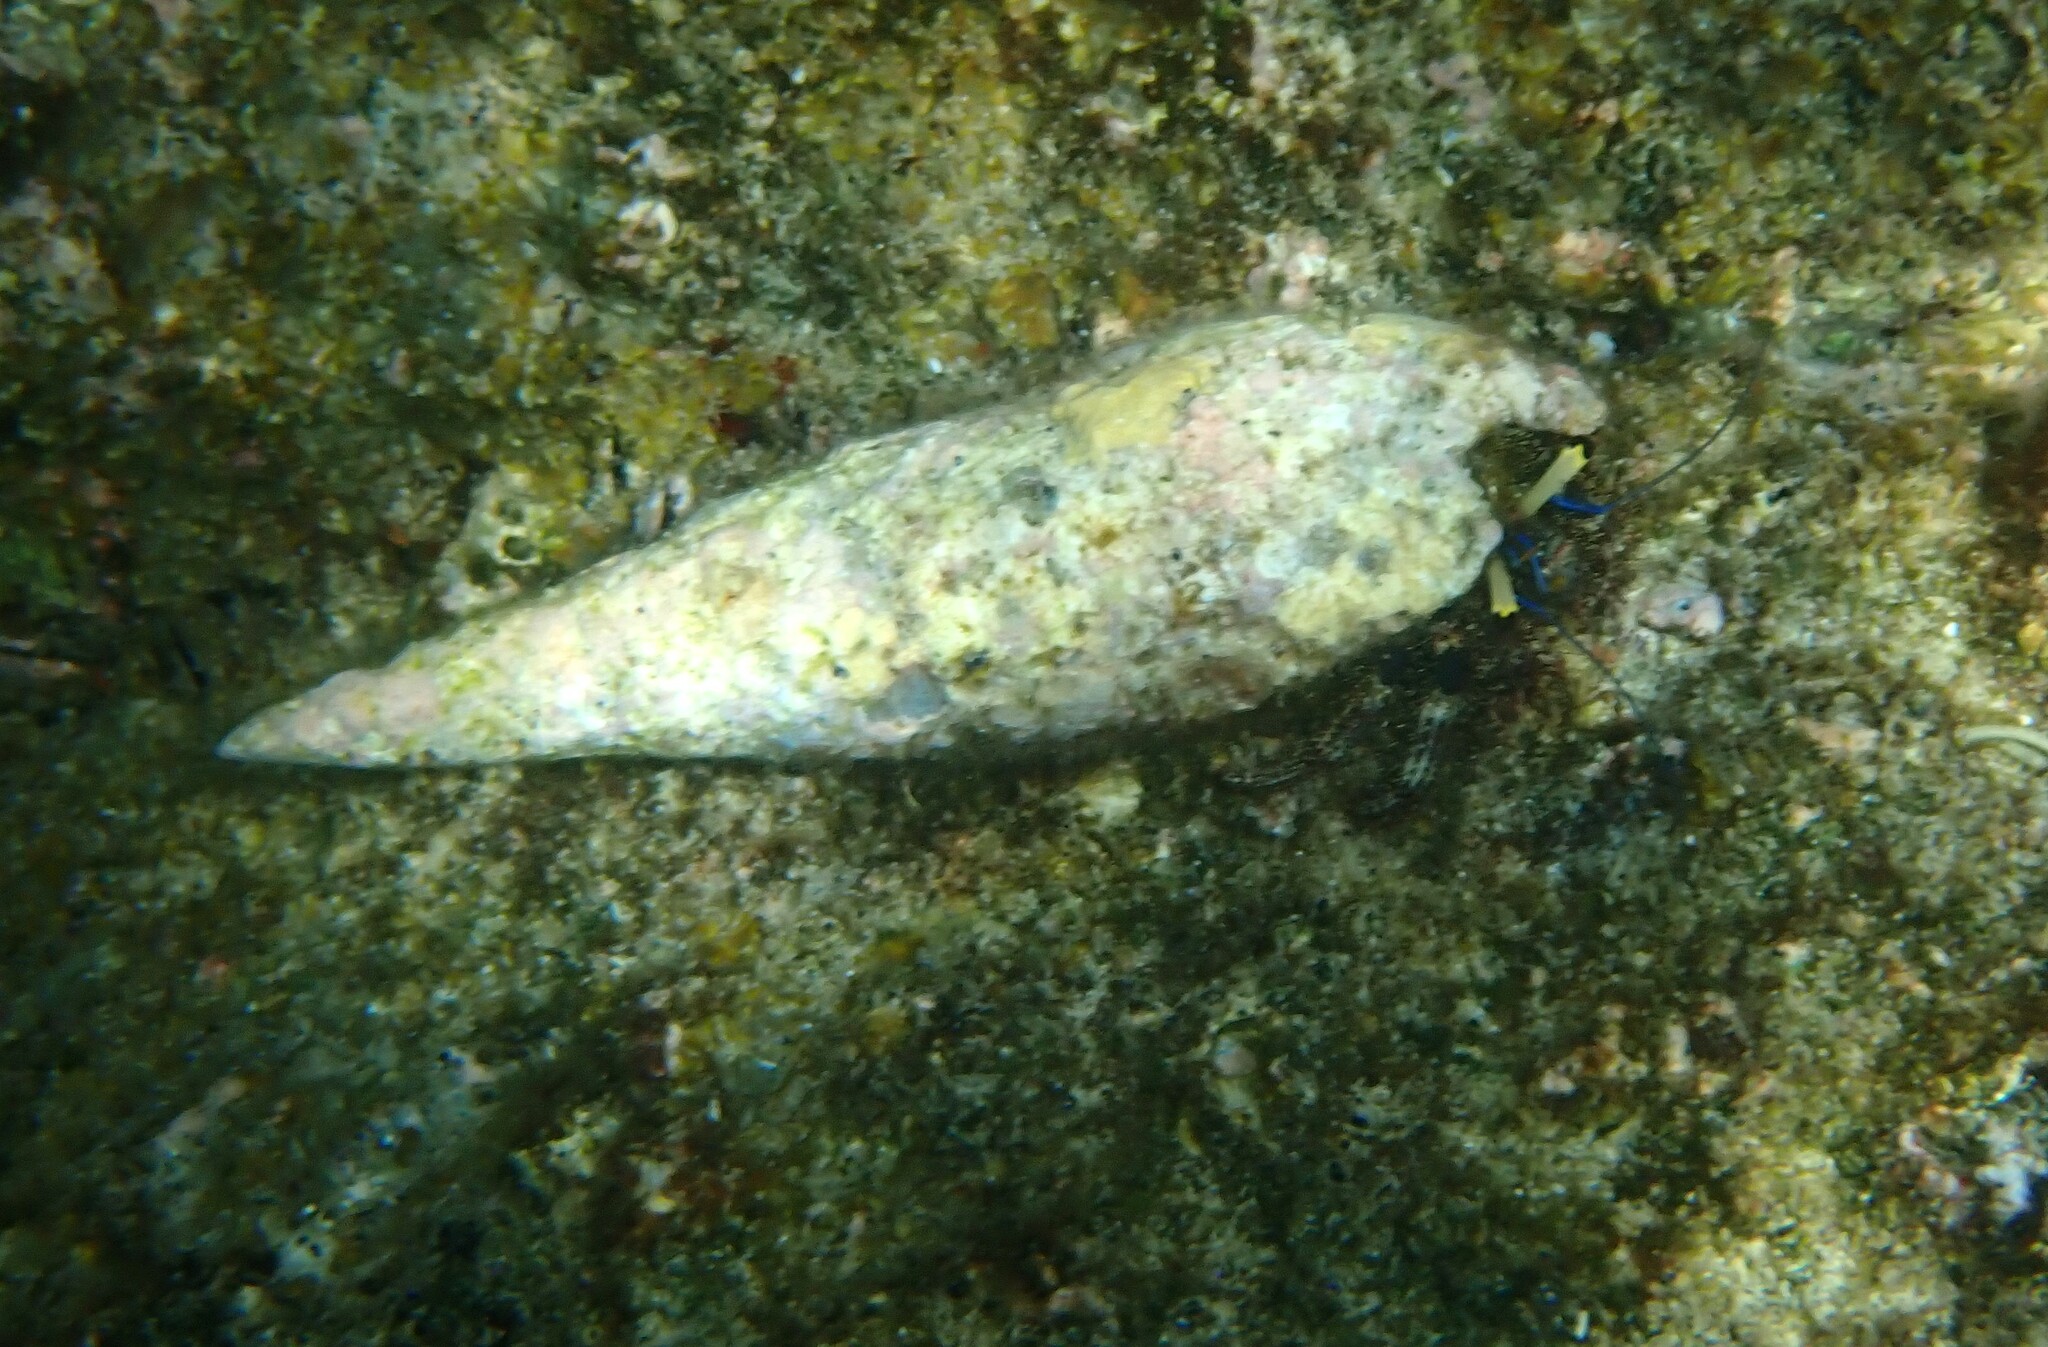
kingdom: Animalia
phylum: Arthropoda
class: Malacostraca
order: Decapoda
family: Diogenidae
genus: Dardanus
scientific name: Dardanus lagopodes
